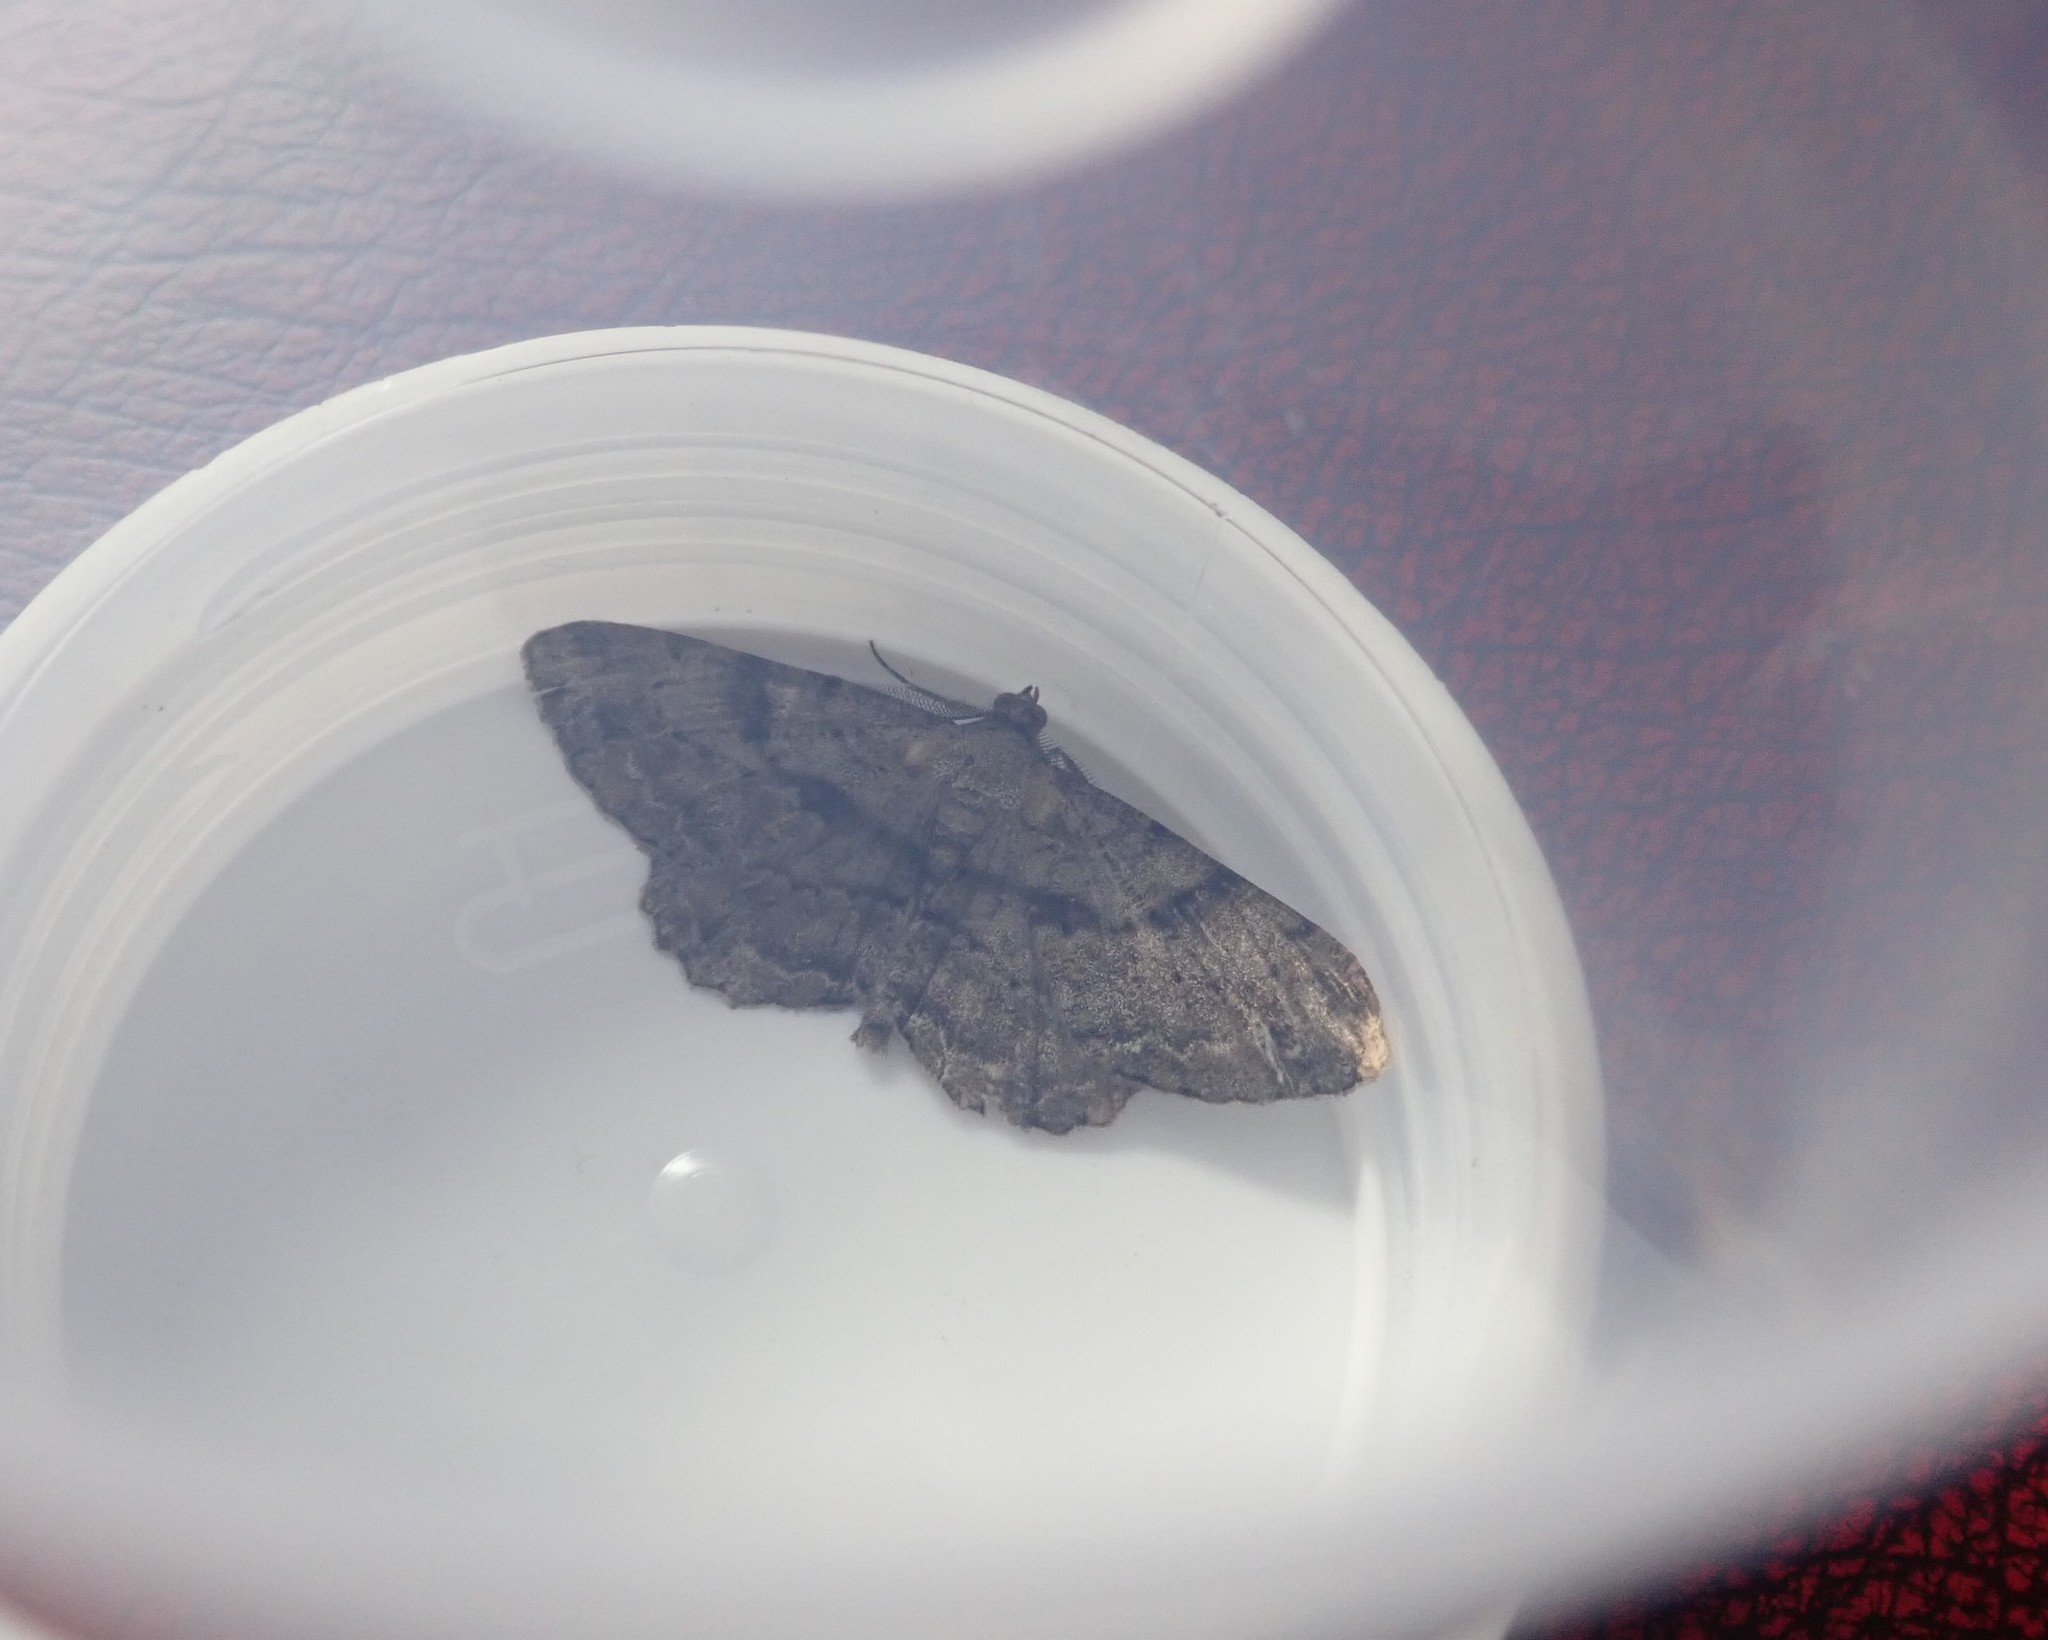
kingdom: Animalia
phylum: Arthropoda
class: Insecta
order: Lepidoptera
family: Geometridae
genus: Peribatodes
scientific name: Peribatodes rhomboidaria
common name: Willow beauty
